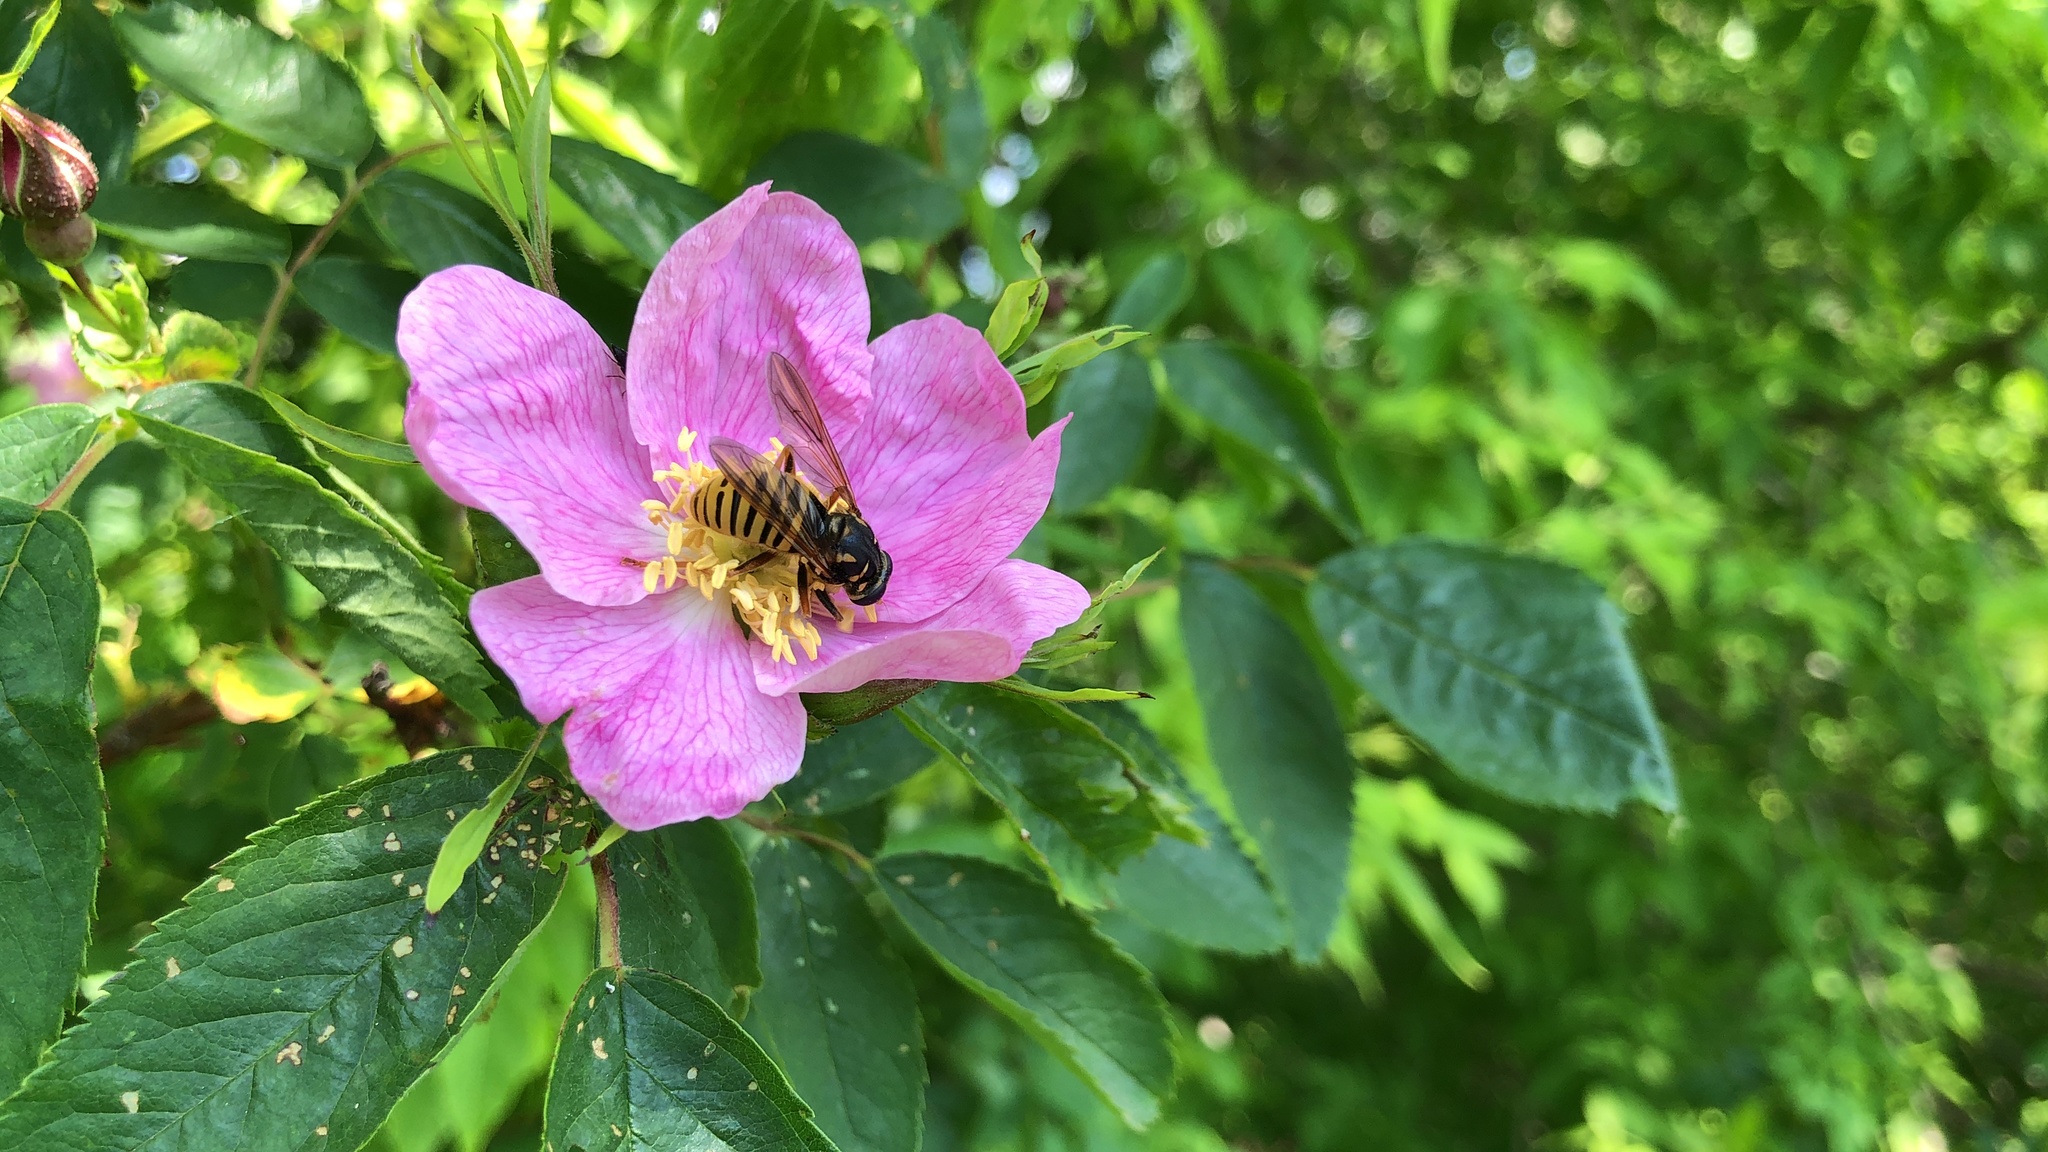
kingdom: Animalia
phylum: Arthropoda
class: Insecta
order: Diptera
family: Syrphidae
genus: Temnostoma
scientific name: Temnostoma vespiforme
